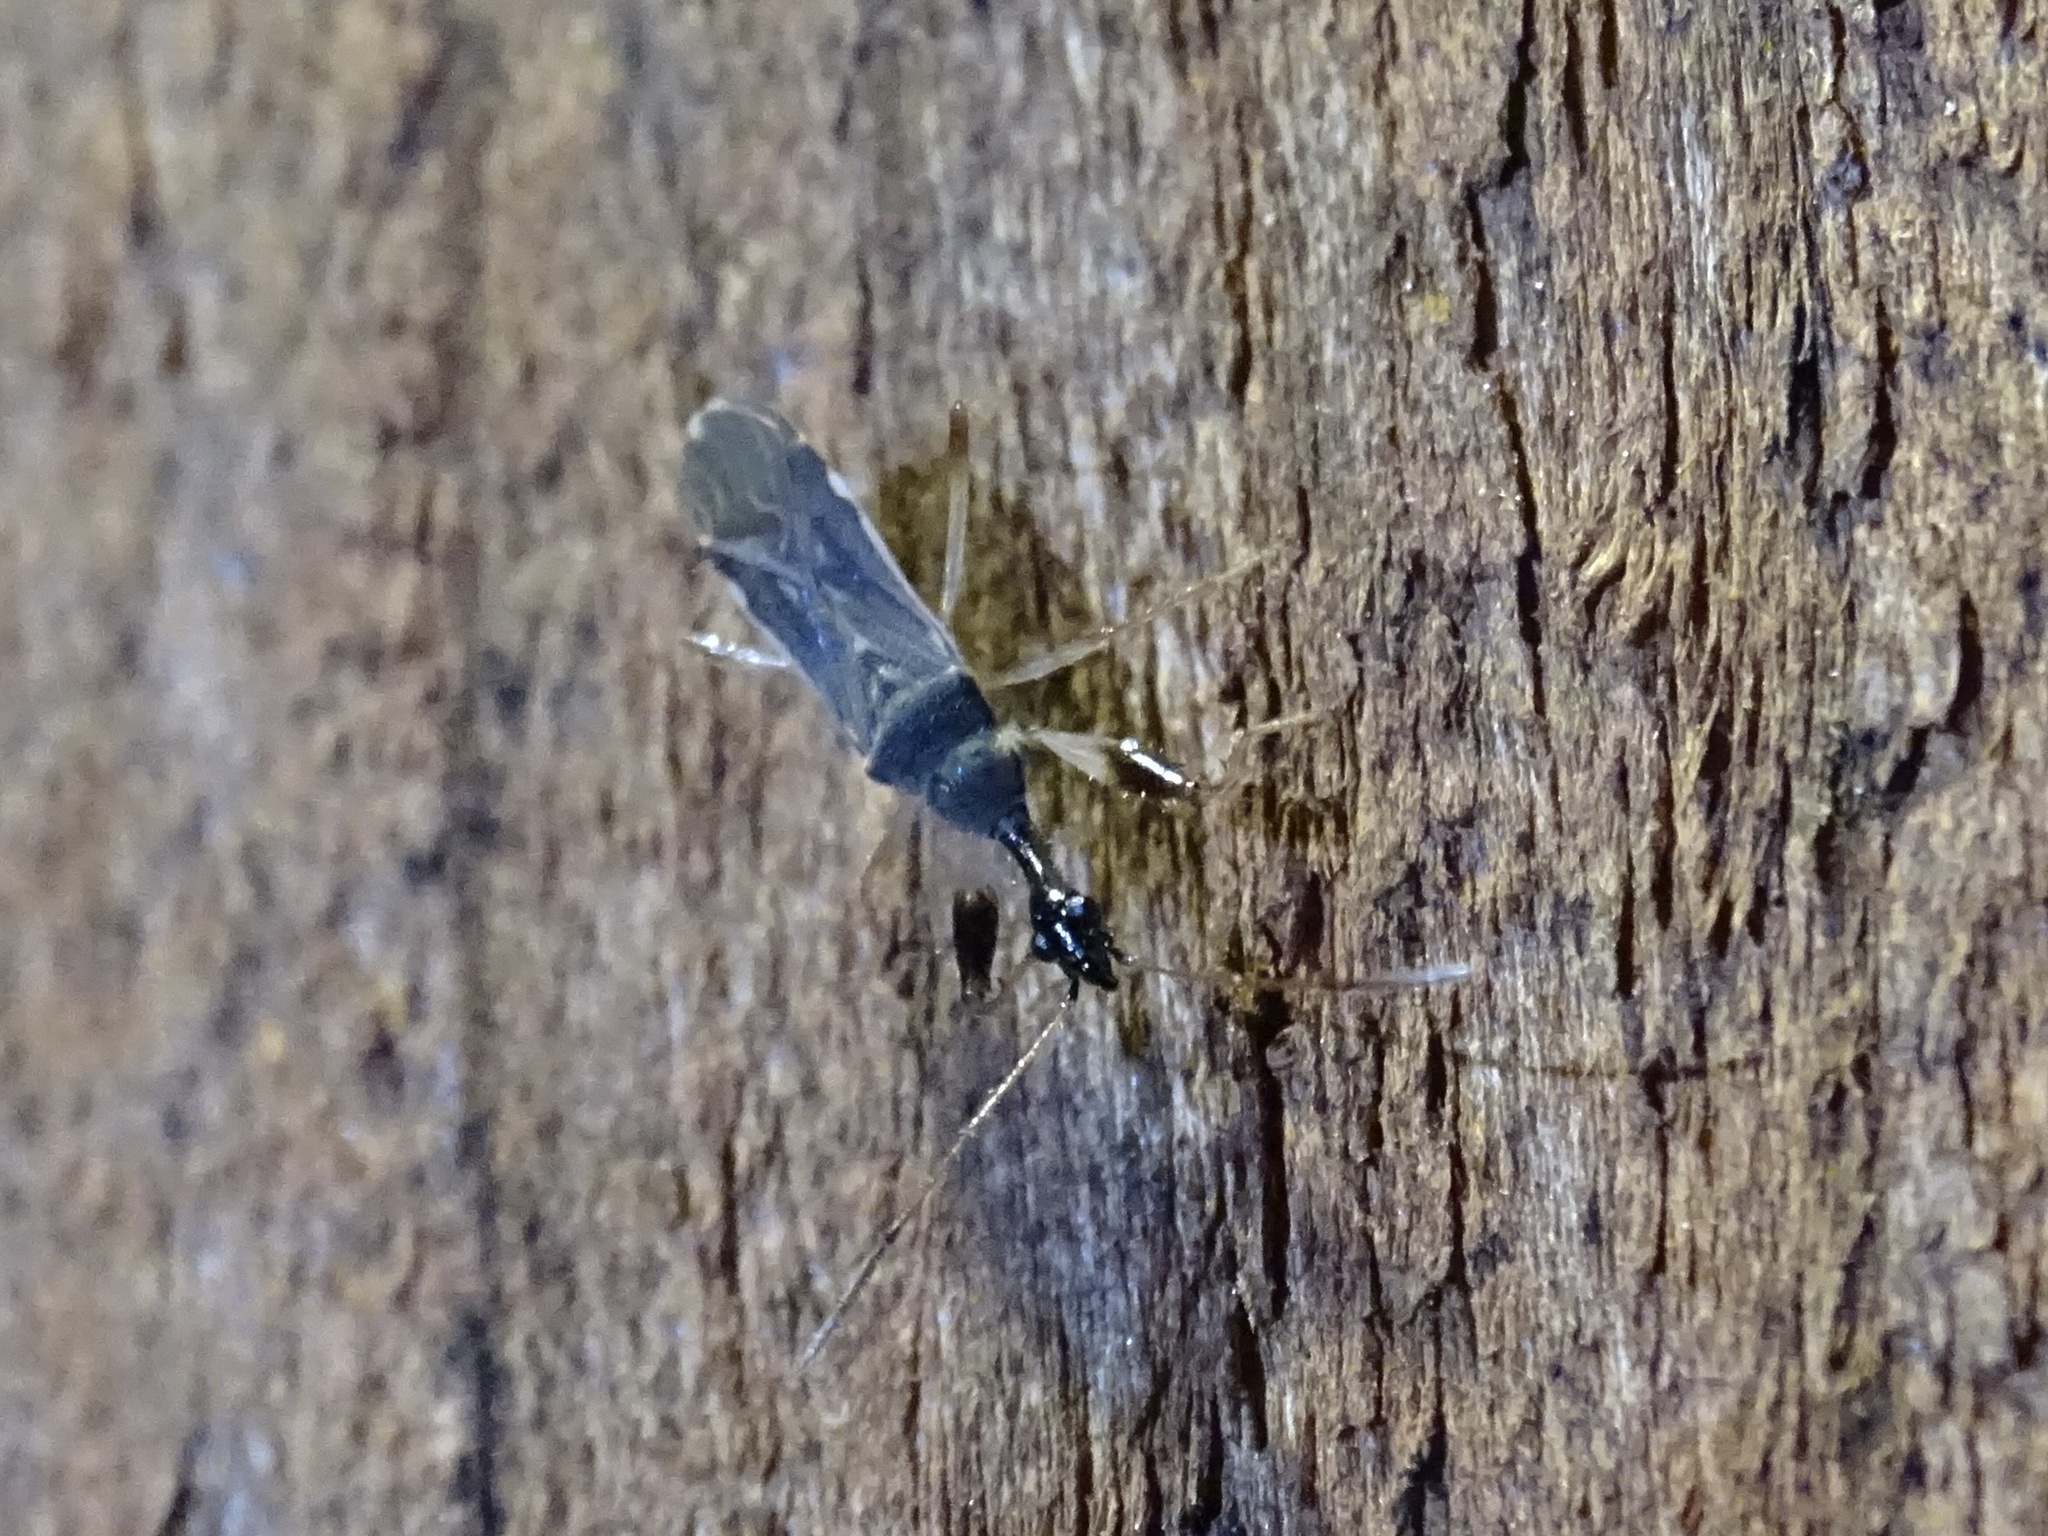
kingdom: Animalia
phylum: Arthropoda
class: Insecta
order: Hemiptera
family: Rhyparochromidae
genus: Myodocha
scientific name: Myodocha serripes
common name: Long-necked seed bug
